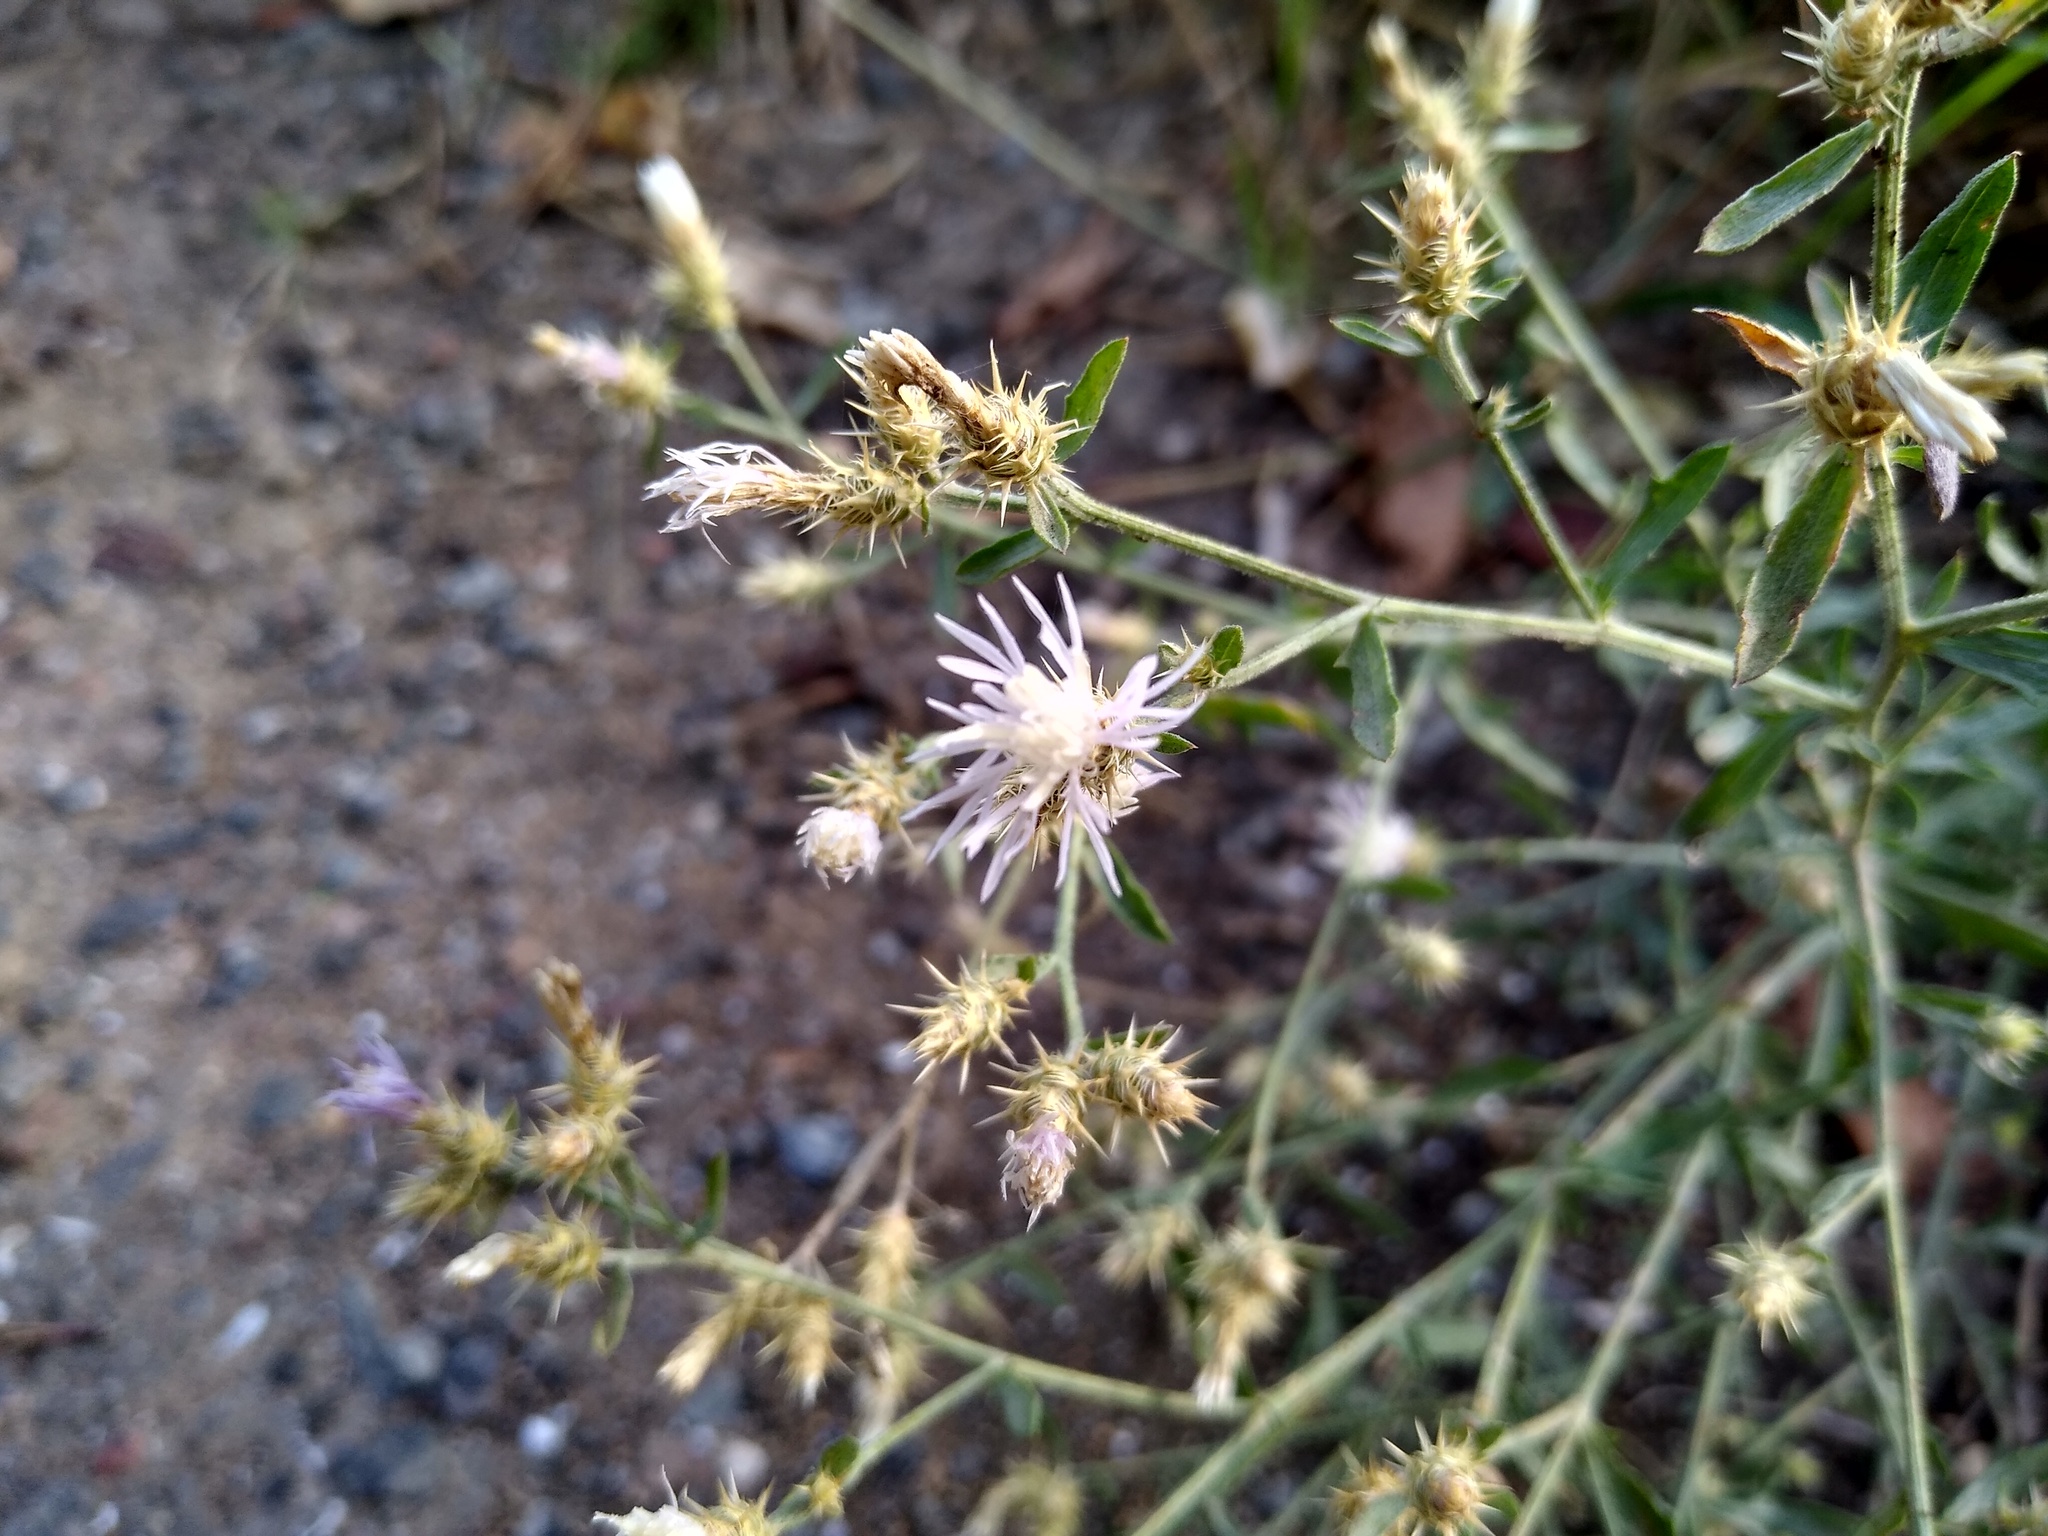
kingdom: Plantae
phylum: Tracheophyta
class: Magnoliopsida
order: Asterales
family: Asteraceae
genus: Centaurea
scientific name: Centaurea diffusa
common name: Diffuse knapweed
